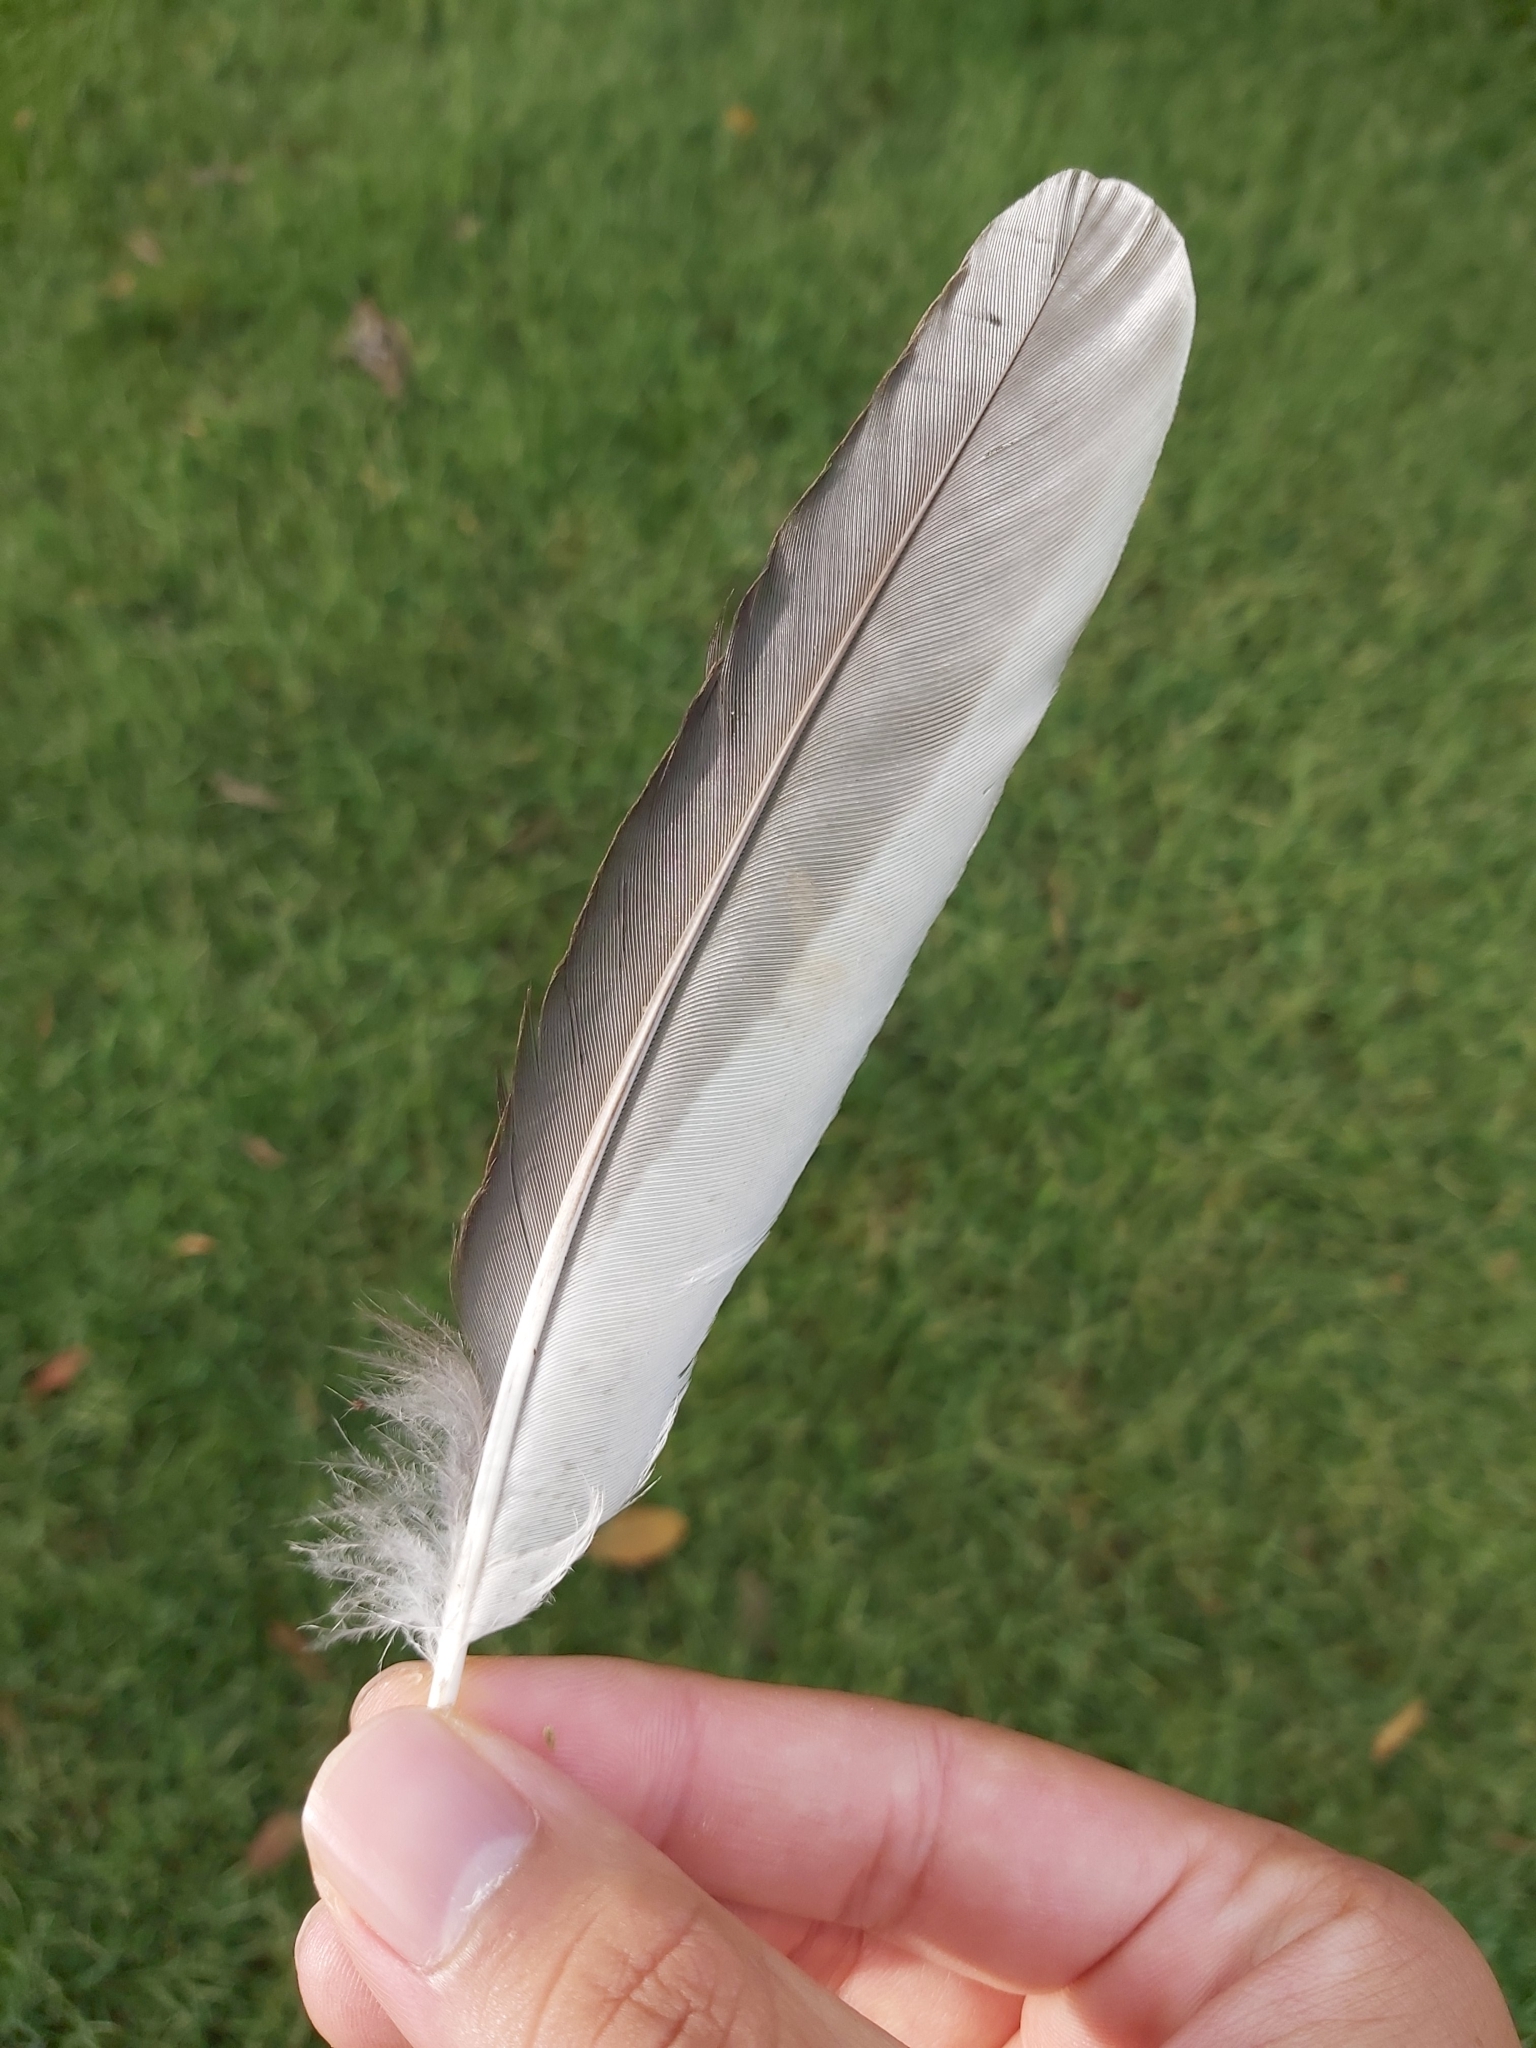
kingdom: Animalia
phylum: Chordata
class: Aves
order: Coraciiformes
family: Alcedinidae
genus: Dacelo
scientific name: Dacelo novaeguineae
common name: Laughing kookaburra
